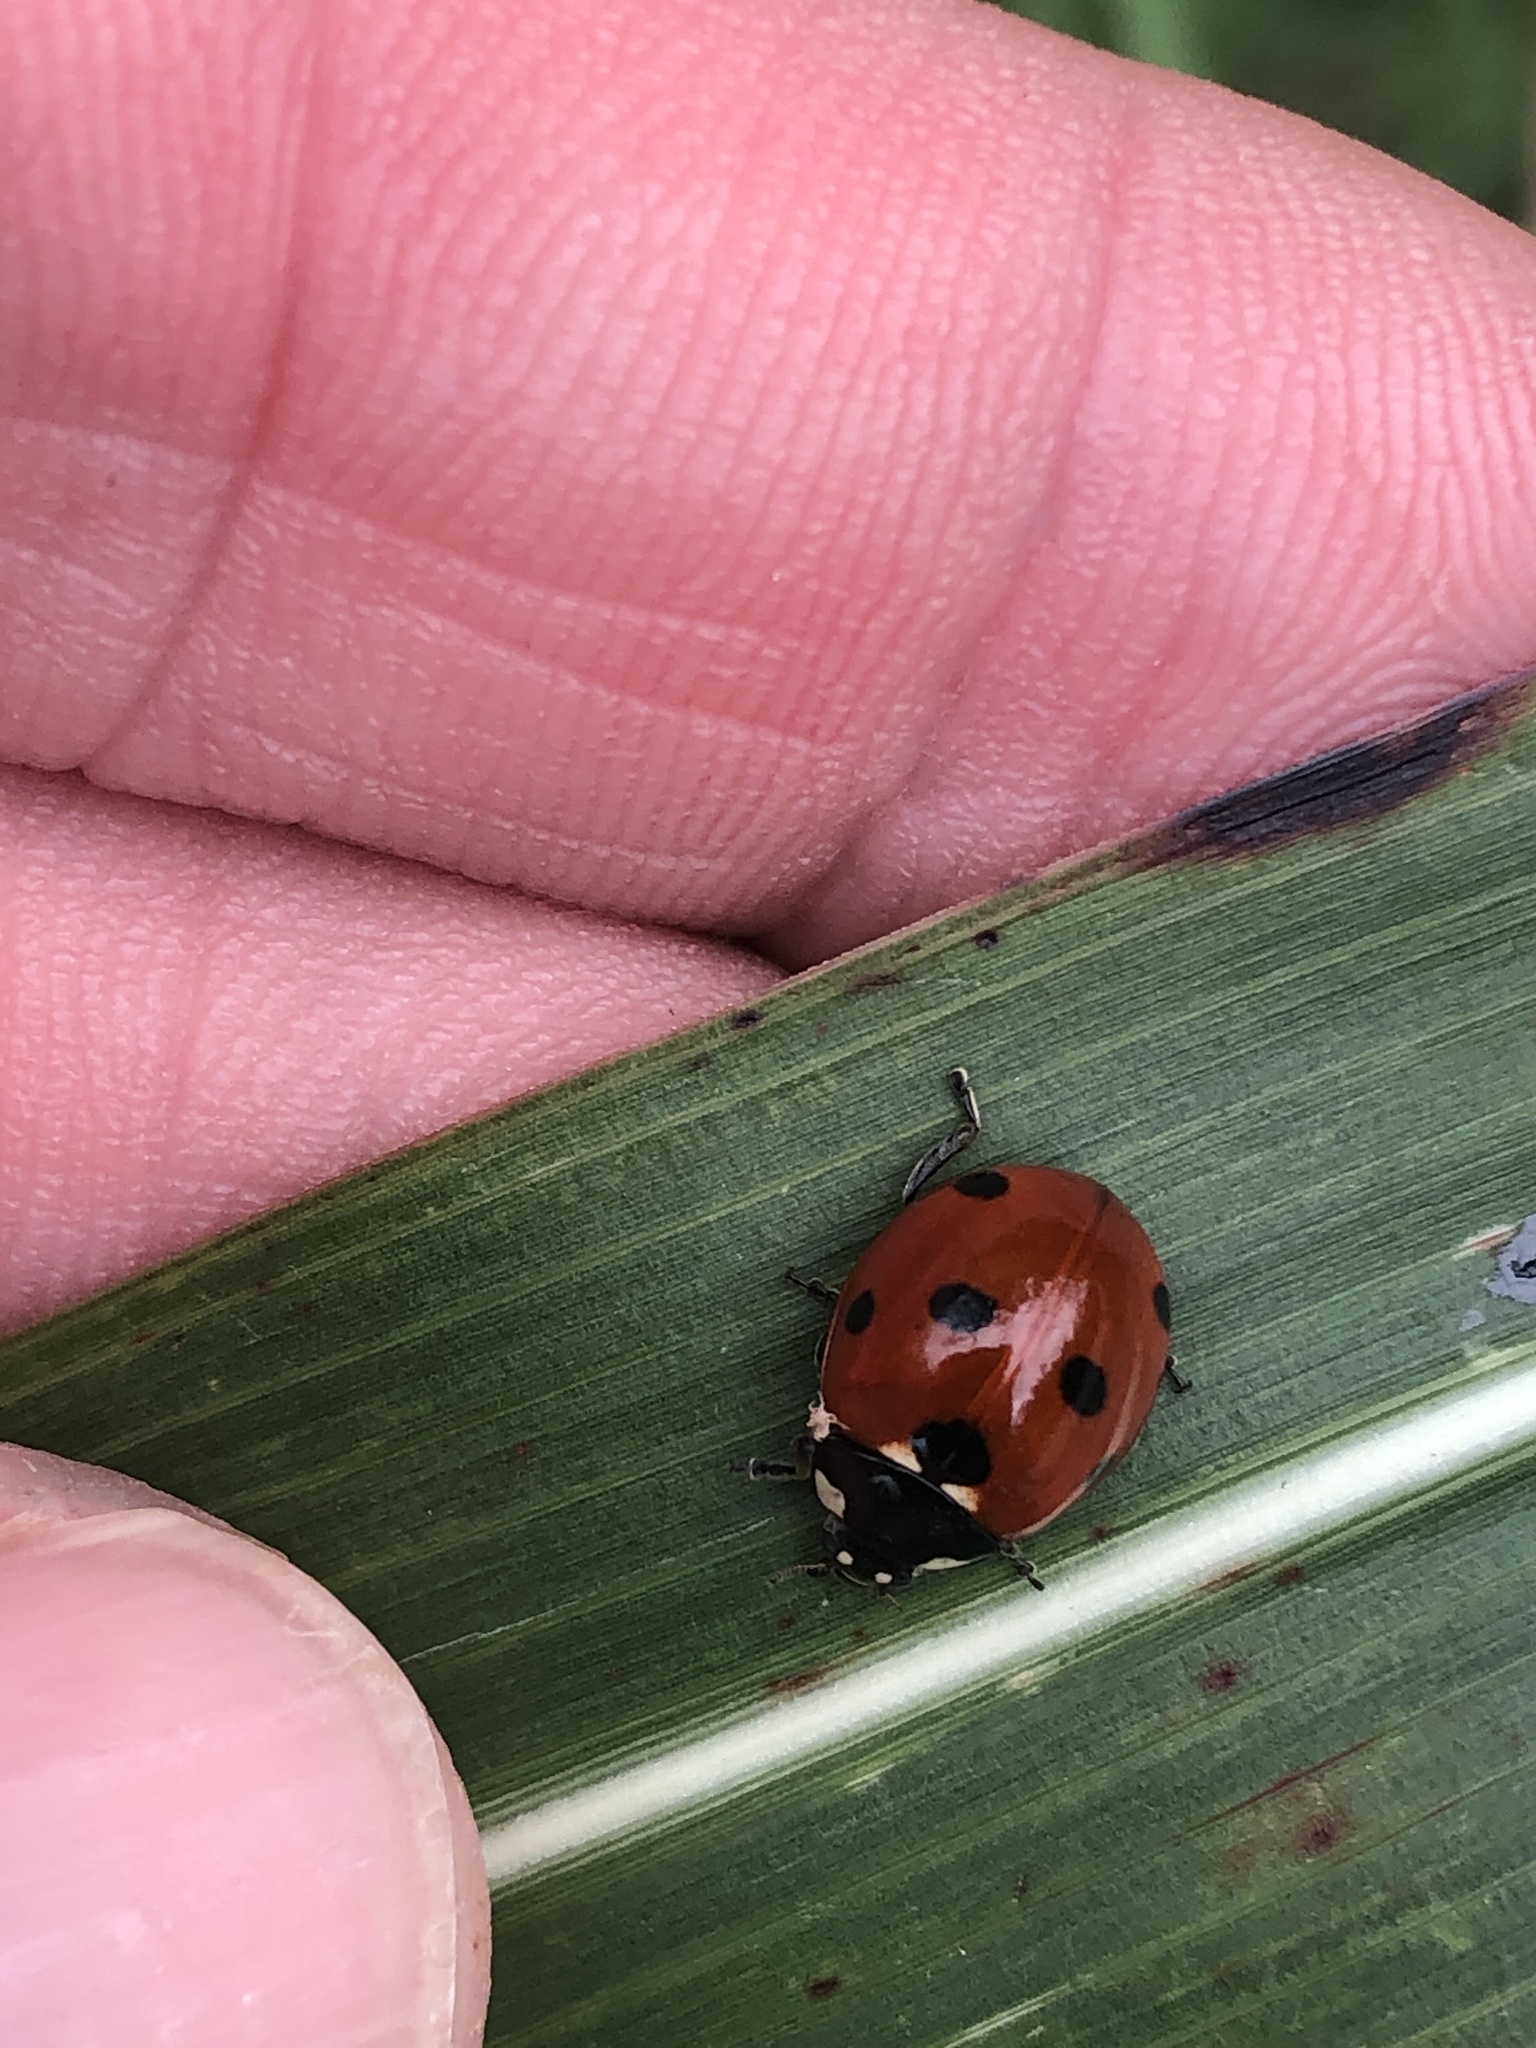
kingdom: Animalia
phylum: Arthropoda
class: Insecta
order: Coleoptera
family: Coccinellidae
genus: Coccinella
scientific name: Coccinella septempunctata
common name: Sevenspotted lady beetle
